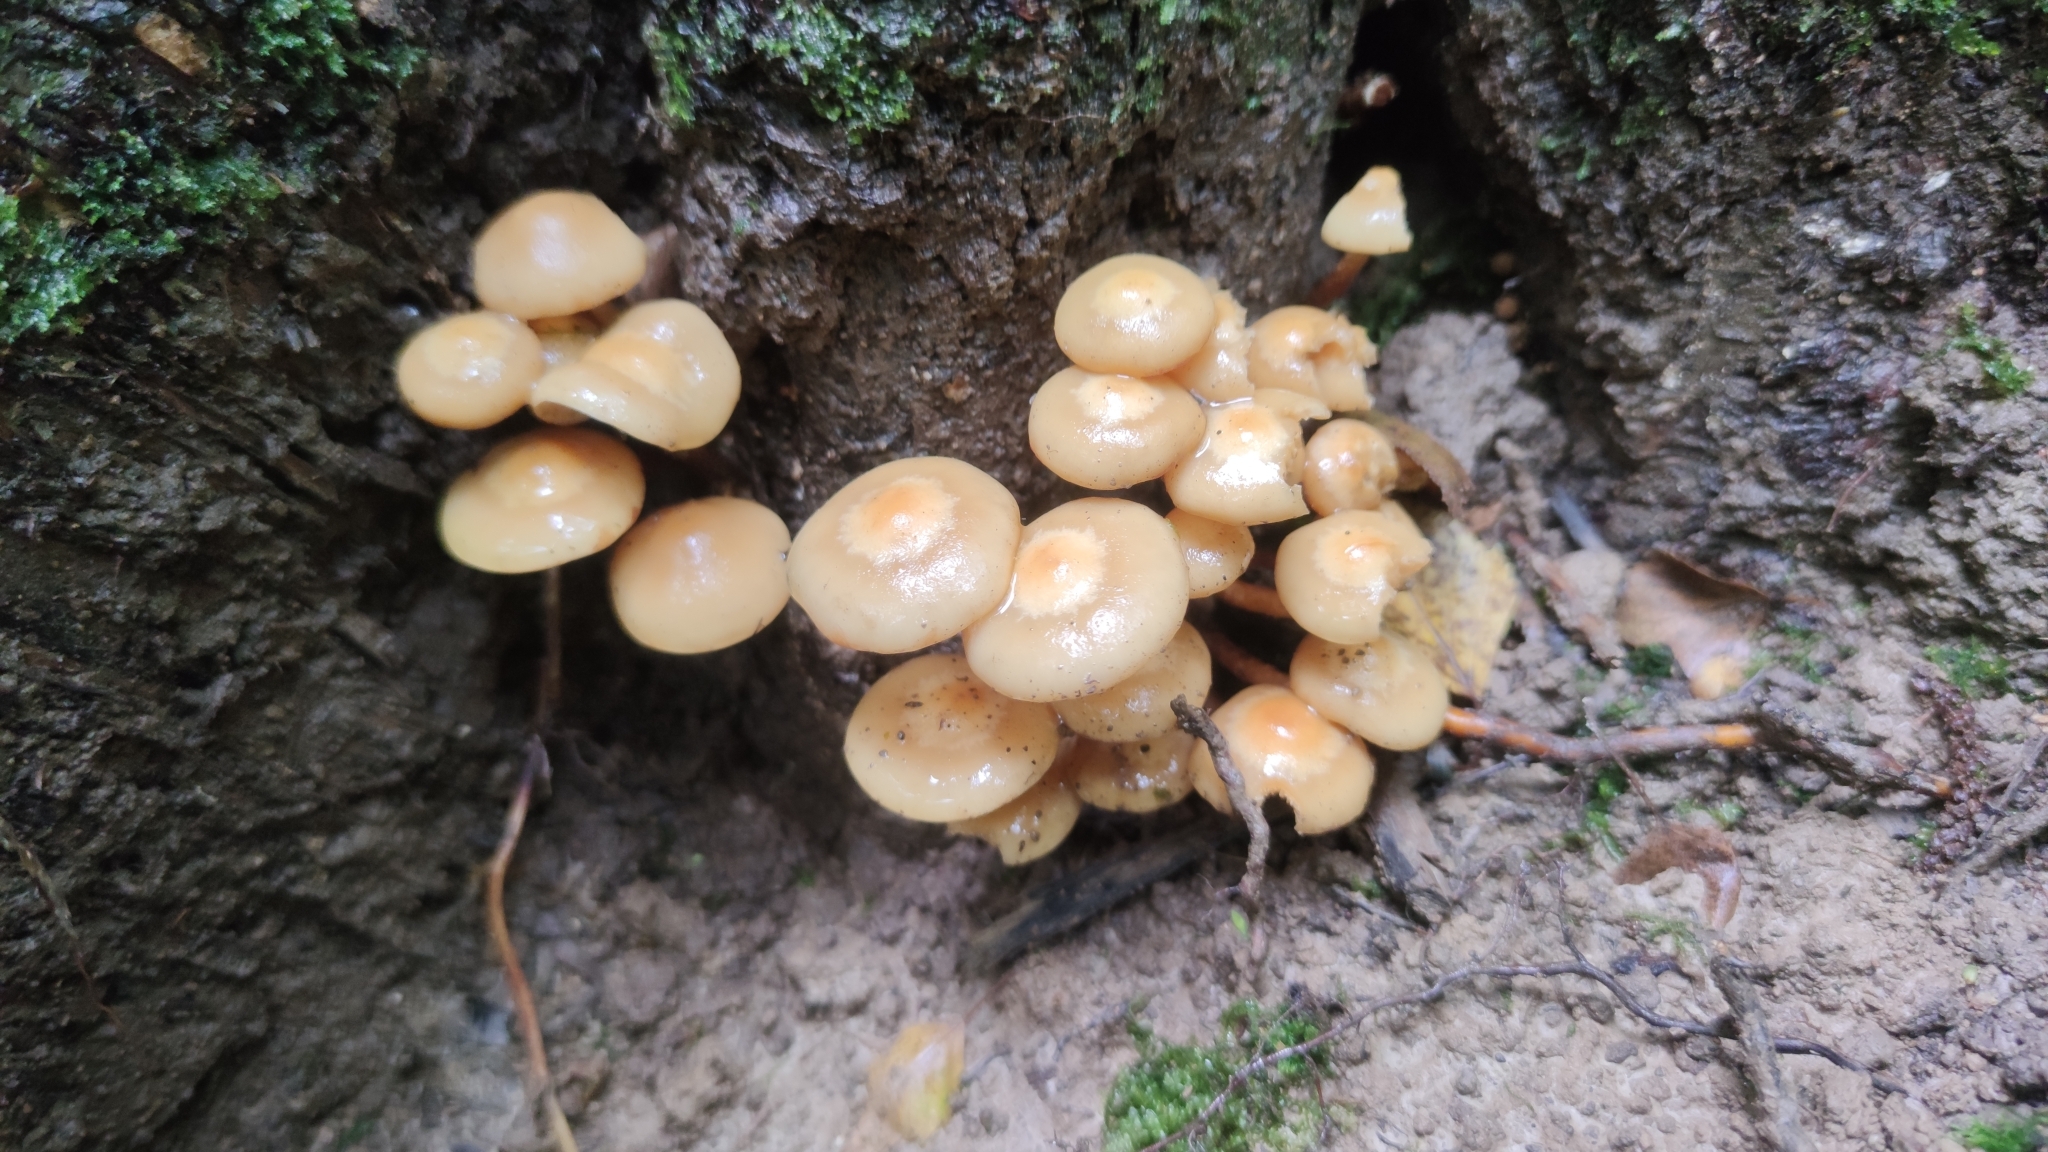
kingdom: Fungi
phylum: Basidiomycota
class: Agaricomycetes
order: Agaricales
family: Strophariaceae
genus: Kuehneromyces
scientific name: Kuehneromyces mutabilis
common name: Sheathed woodtuft
